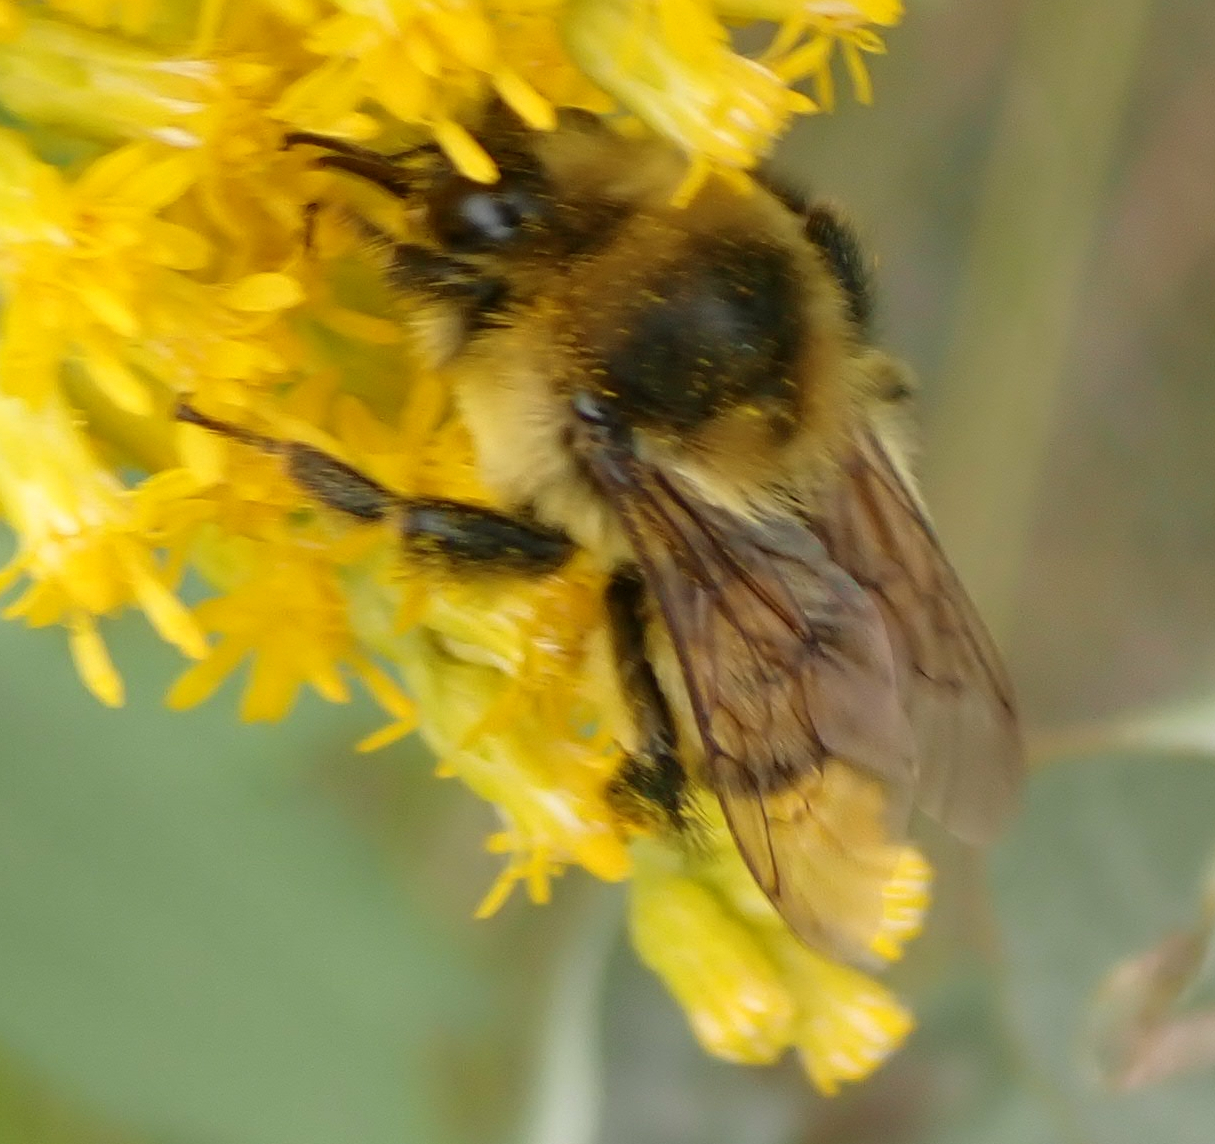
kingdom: Animalia
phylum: Arthropoda
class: Insecta
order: Hymenoptera
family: Apidae
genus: Bombus
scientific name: Bombus rufocinctus
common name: Red-belted bumble bee
